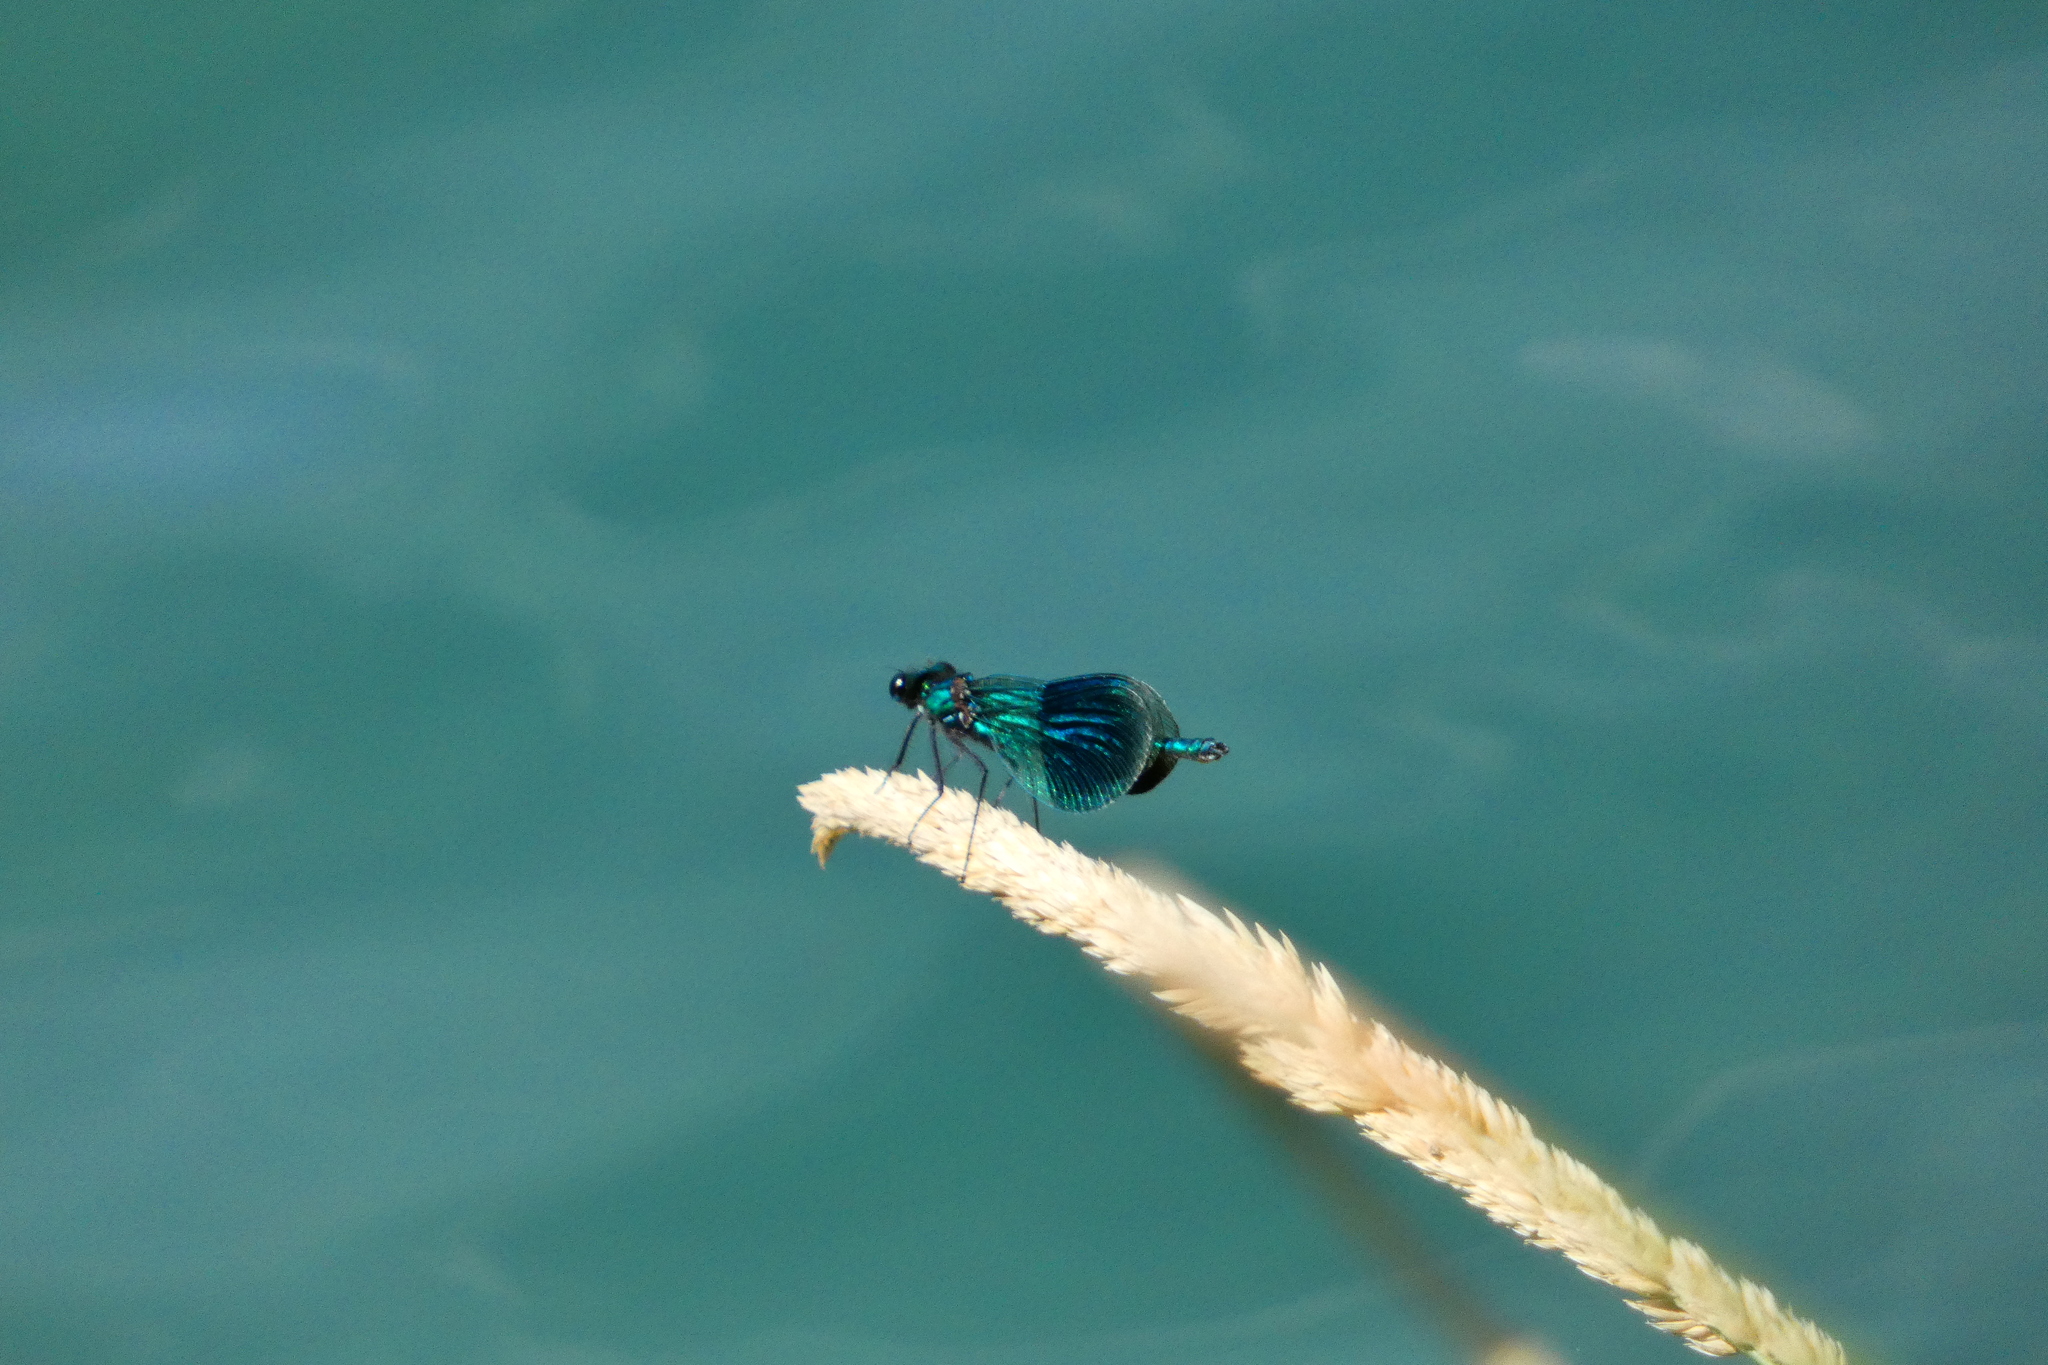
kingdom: Animalia
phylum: Arthropoda
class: Insecta
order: Odonata
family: Calopterygidae
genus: Calopteryx
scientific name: Calopteryx splendens
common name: Banded demoiselle
